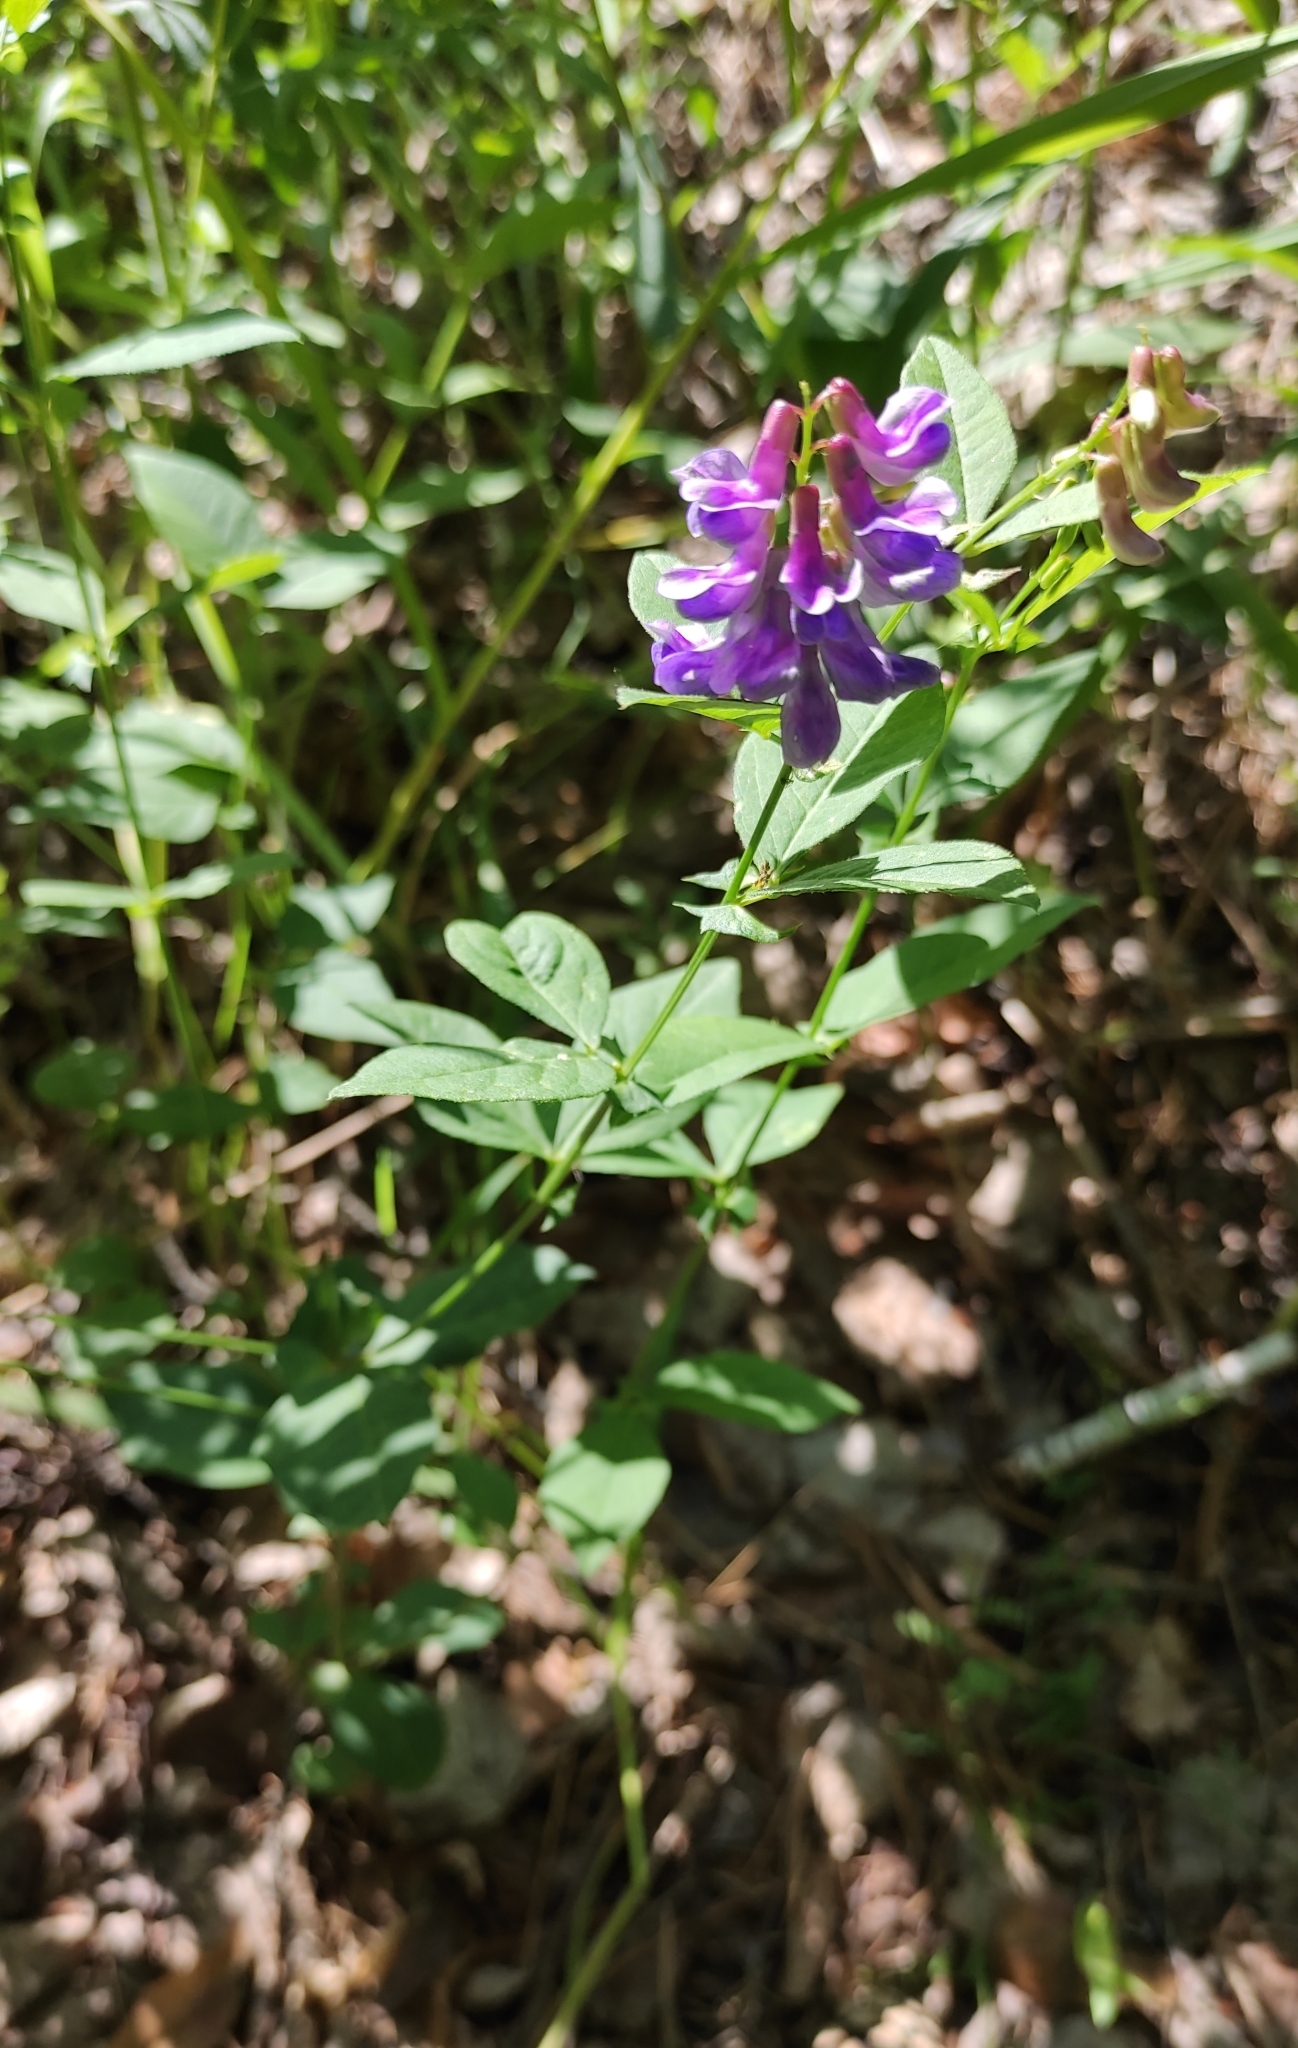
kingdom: Plantae
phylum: Tracheophyta
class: Magnoliopsida
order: Fabales
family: Fabaceae
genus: Vicia
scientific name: Vicia unijuga
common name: Two-leaf vetch
